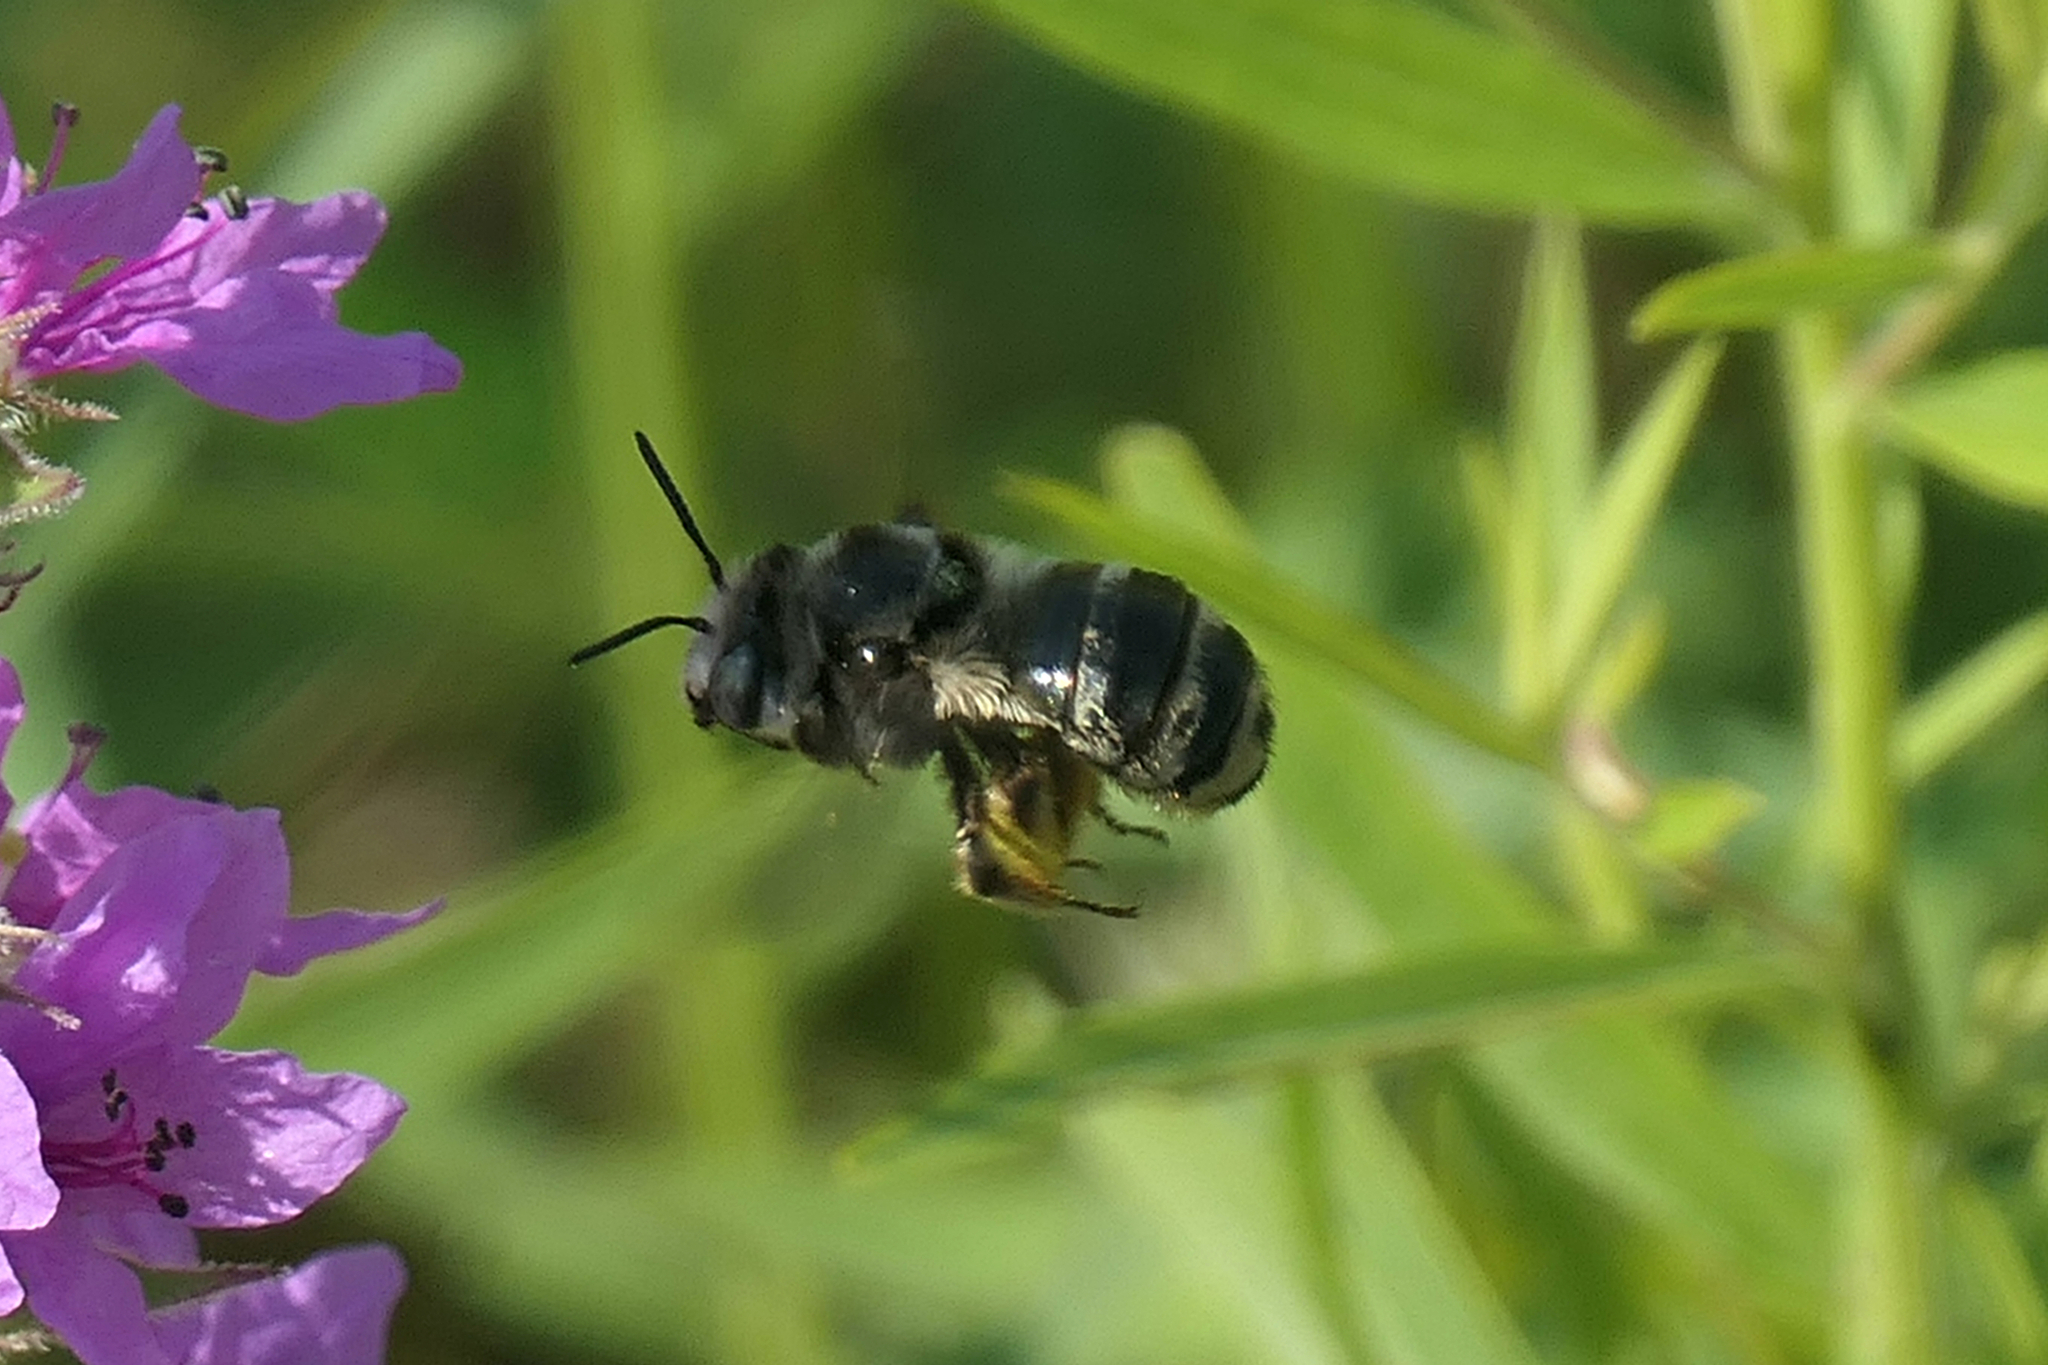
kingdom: Animalia
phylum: Arthropoda
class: Insecta
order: Hymenoptera
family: Apidae
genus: Florilegus
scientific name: Florilegus condignus
